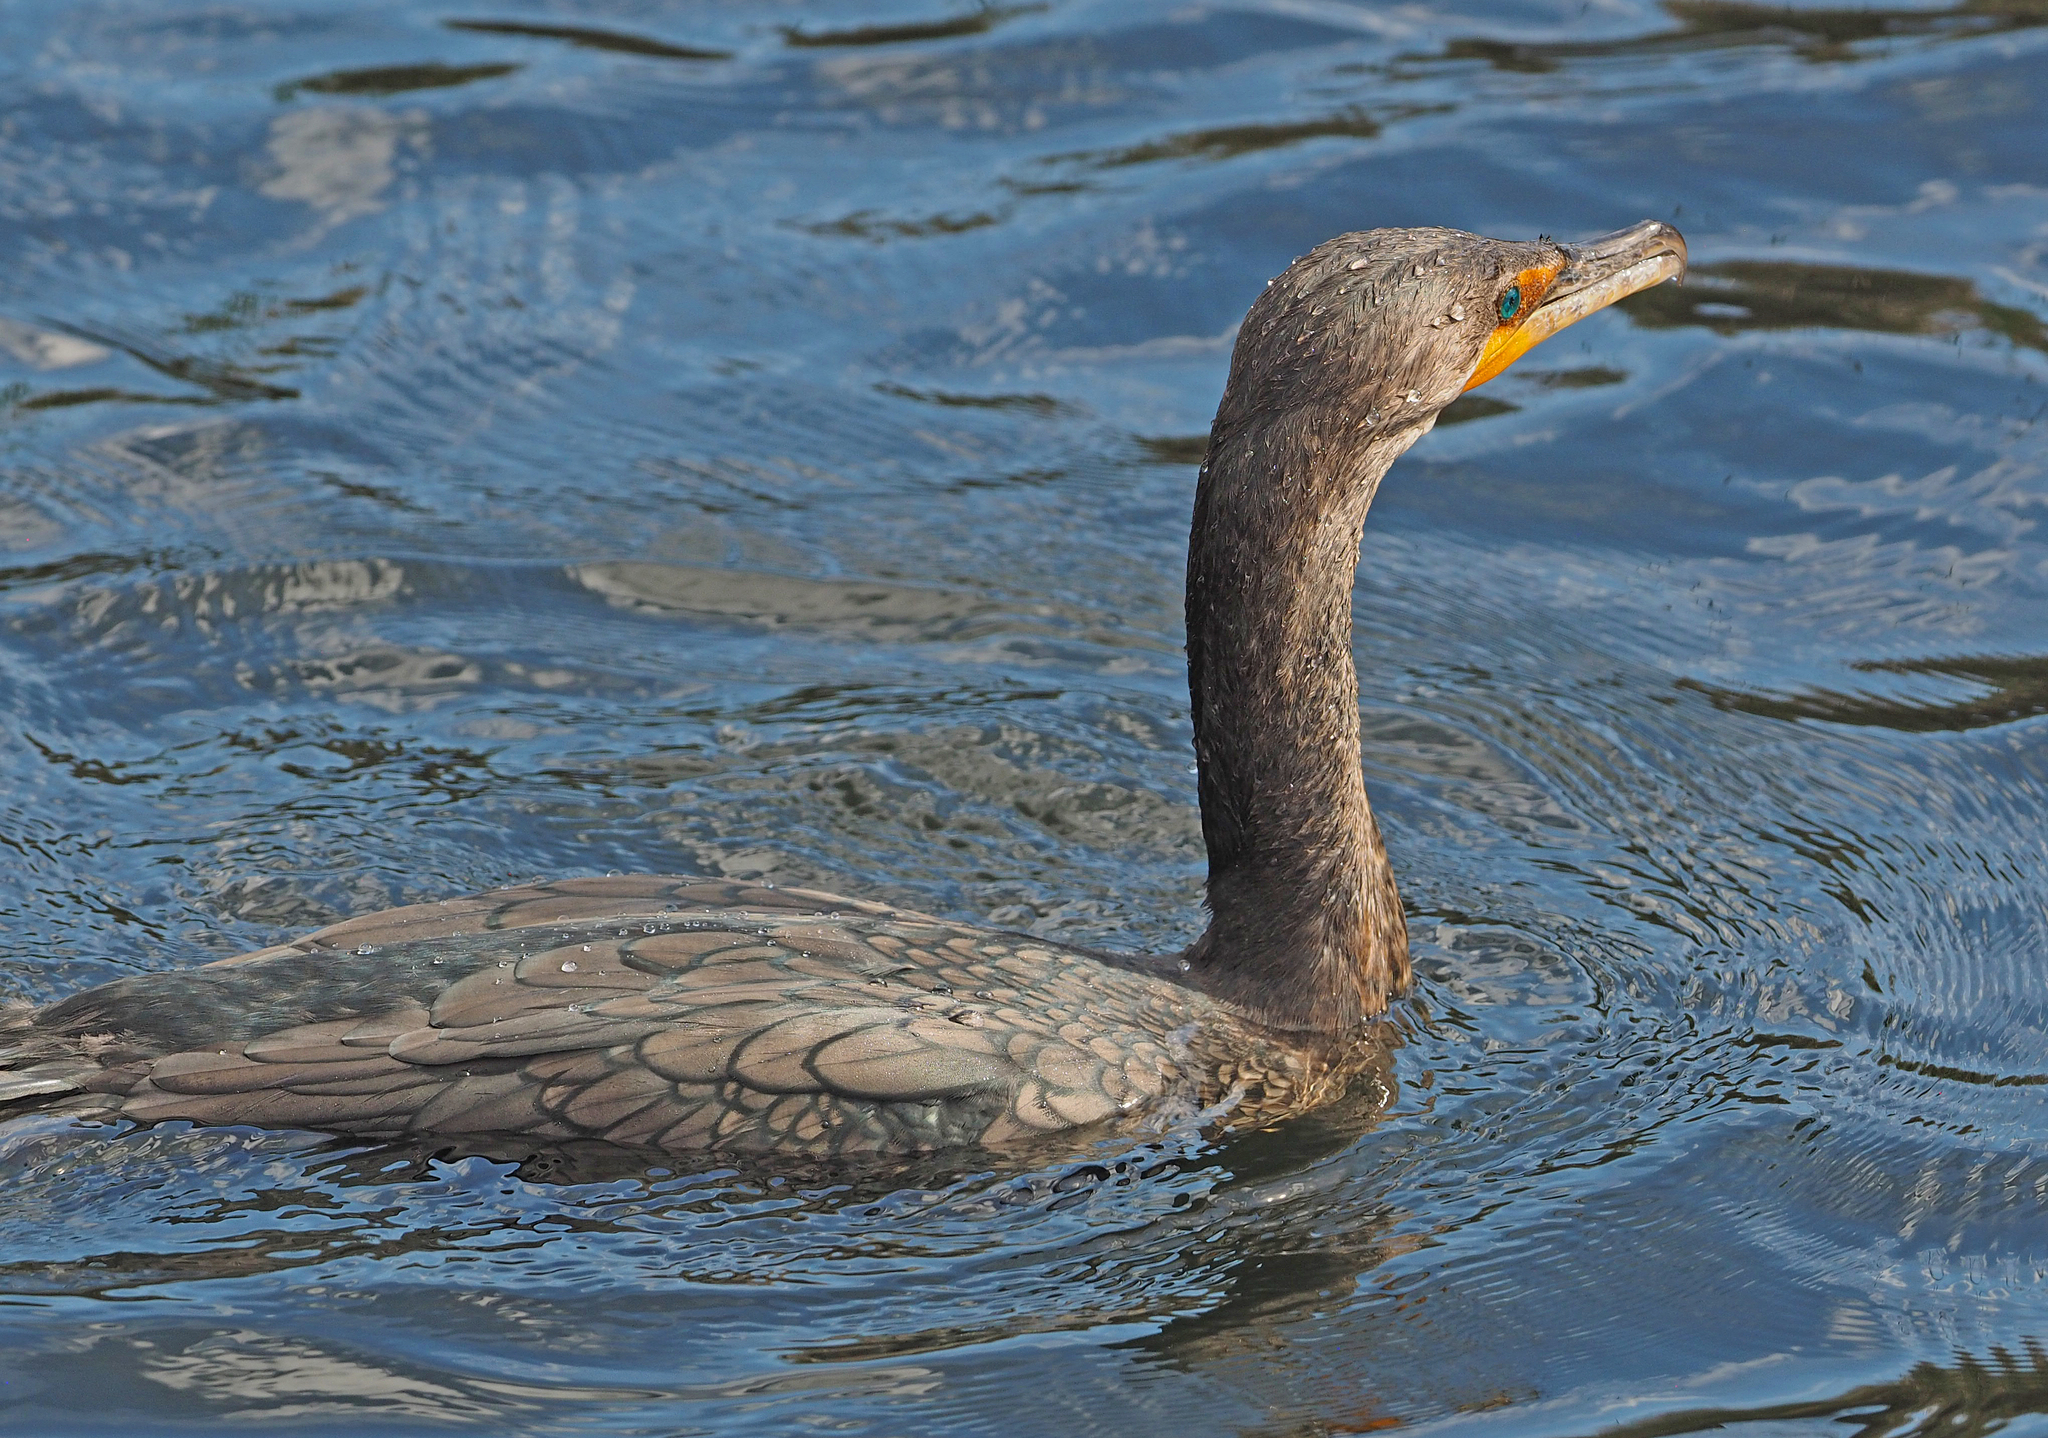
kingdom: Animalia
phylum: Chordata
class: Aves
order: Suliformes
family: Phalacrocoracidae
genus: Phalacrocorax
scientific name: Phalacrocorax auritus
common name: Double-crested cormorant
